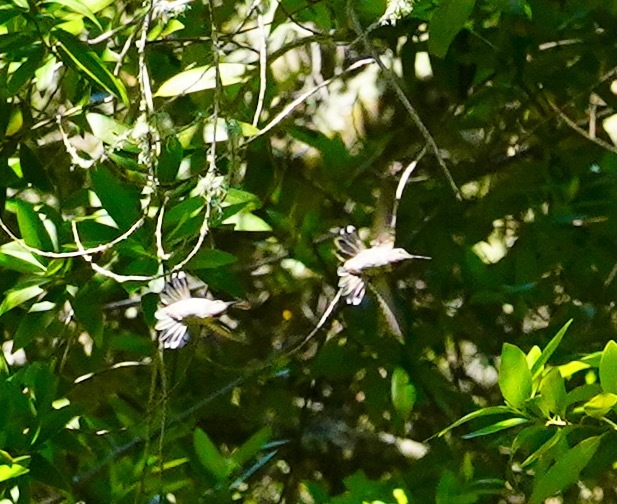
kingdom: Animalia
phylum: Chordata
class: Aves
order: Apodiformes
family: Trochilidae
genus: Calypte
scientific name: Calypte anna
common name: Anna's hummingbird
